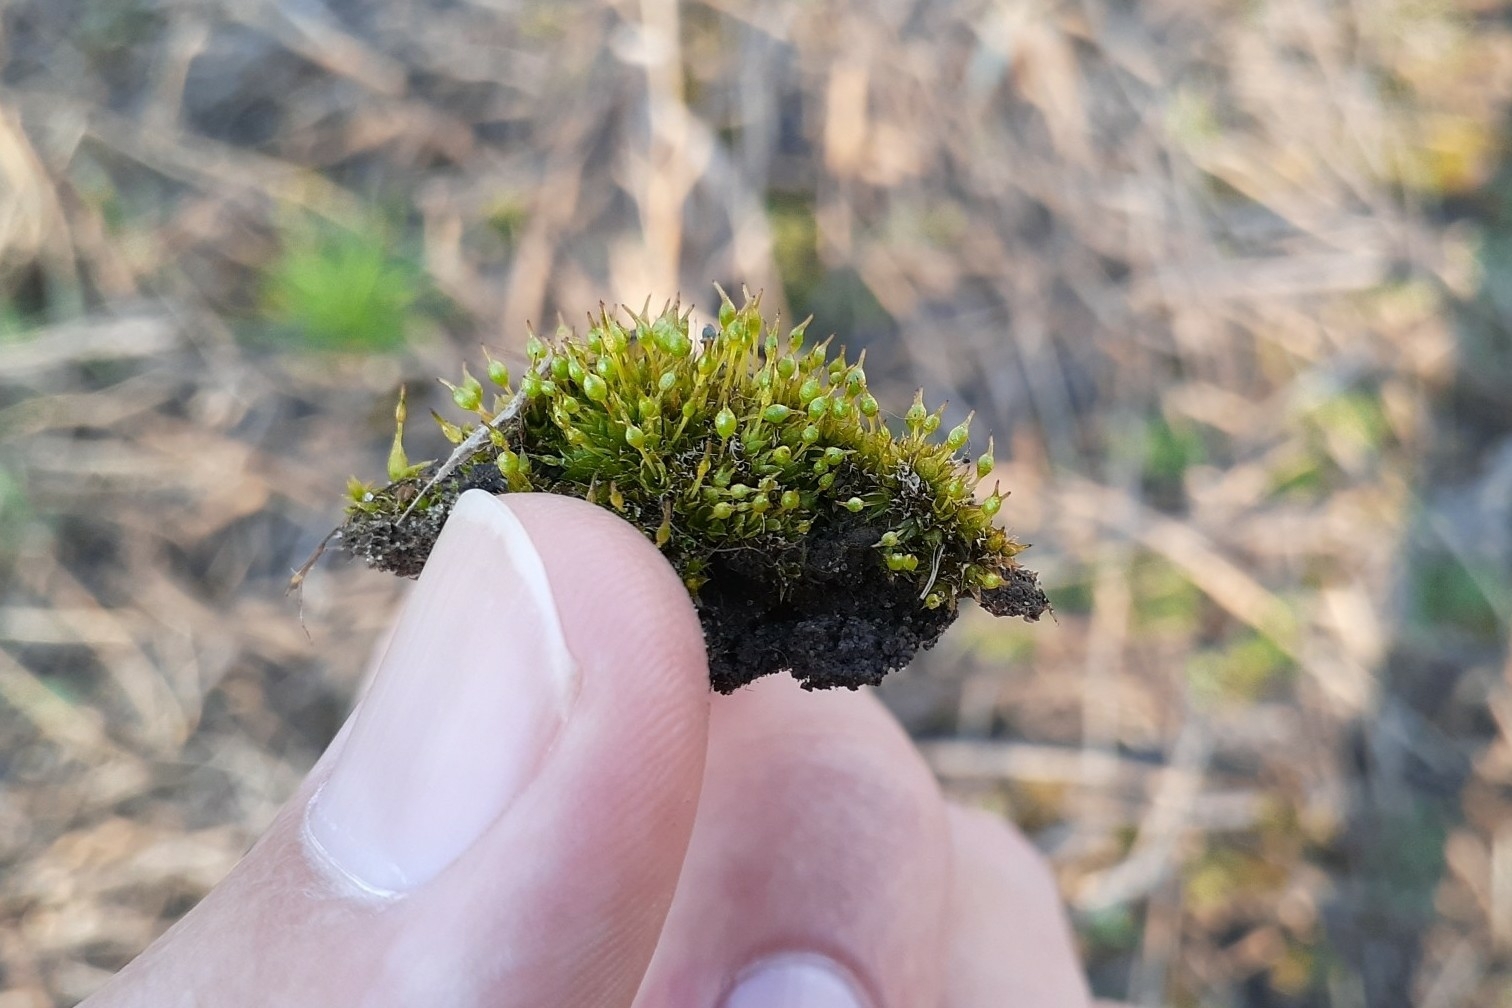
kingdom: Plantae
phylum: Bryophyta
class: Bryopsida
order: Funariales
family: Funariaceae
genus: Physcomitrium
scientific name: Physcomitrium pyriforme
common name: Common bladder-moss
